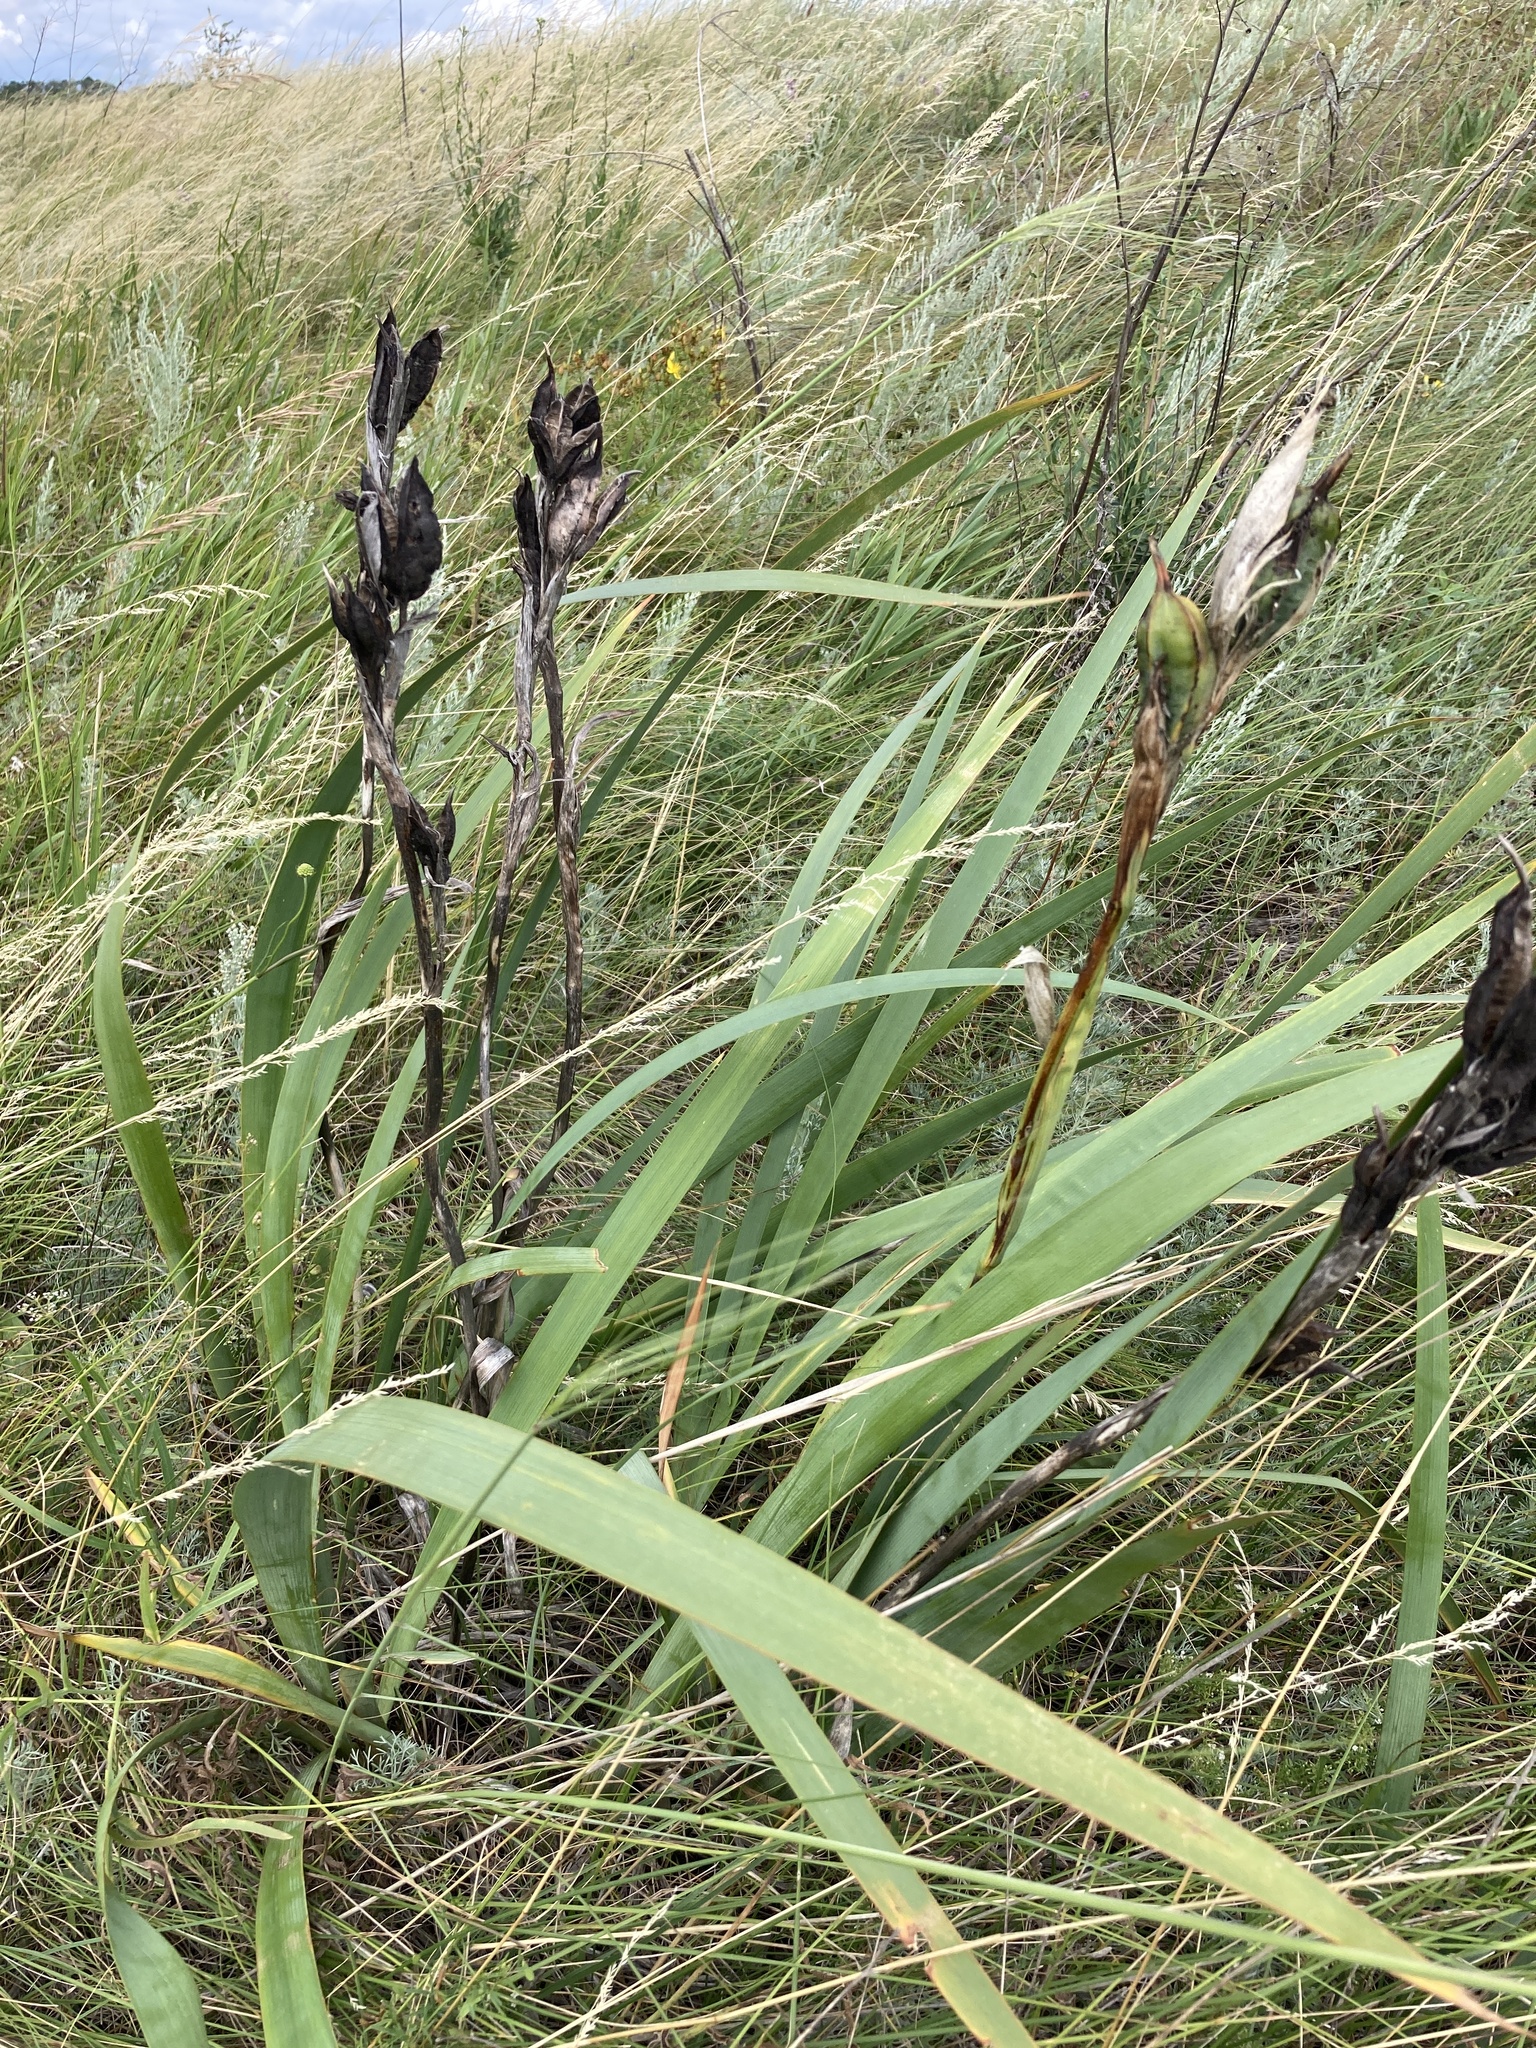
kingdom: Plantae
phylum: Tracheophyta
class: Liliopsida
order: Asparagales
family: Iridaceae
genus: Iris
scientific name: Iris halophila
